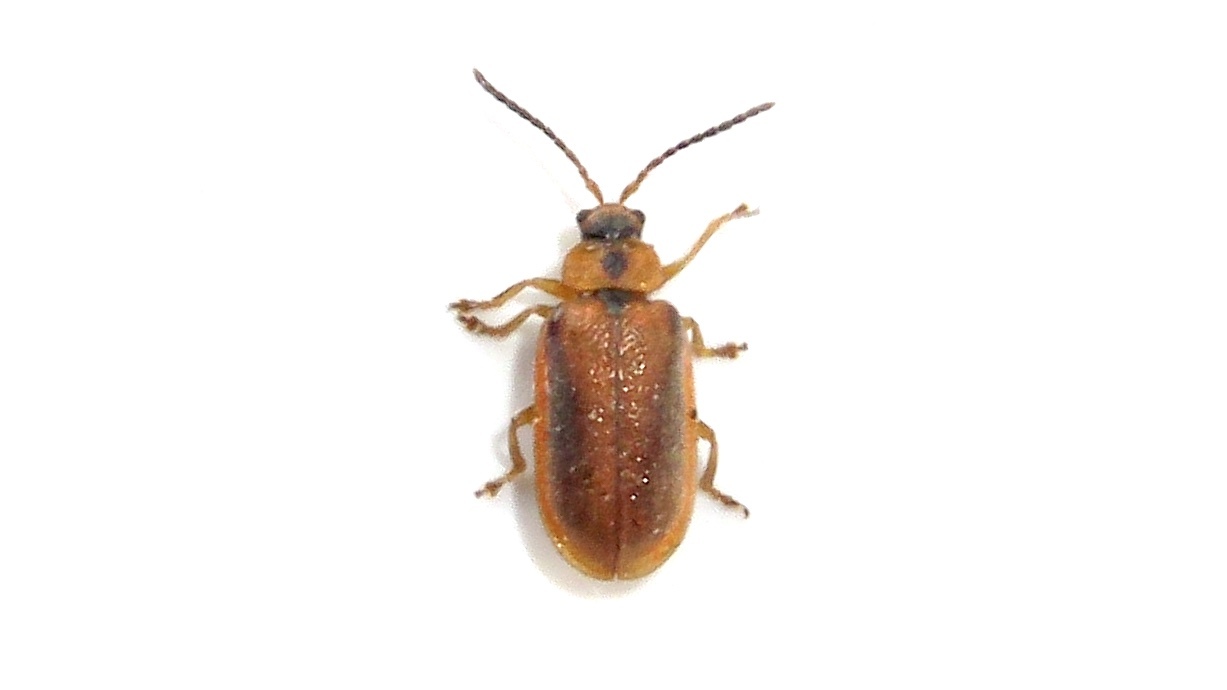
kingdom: Animalia
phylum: Arthropoda
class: Insecta
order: Coleoptera
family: Chrysomelidae
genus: Neogalerucella
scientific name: Neogalerucella calmariensis
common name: Black-margined loosestrife beetle
